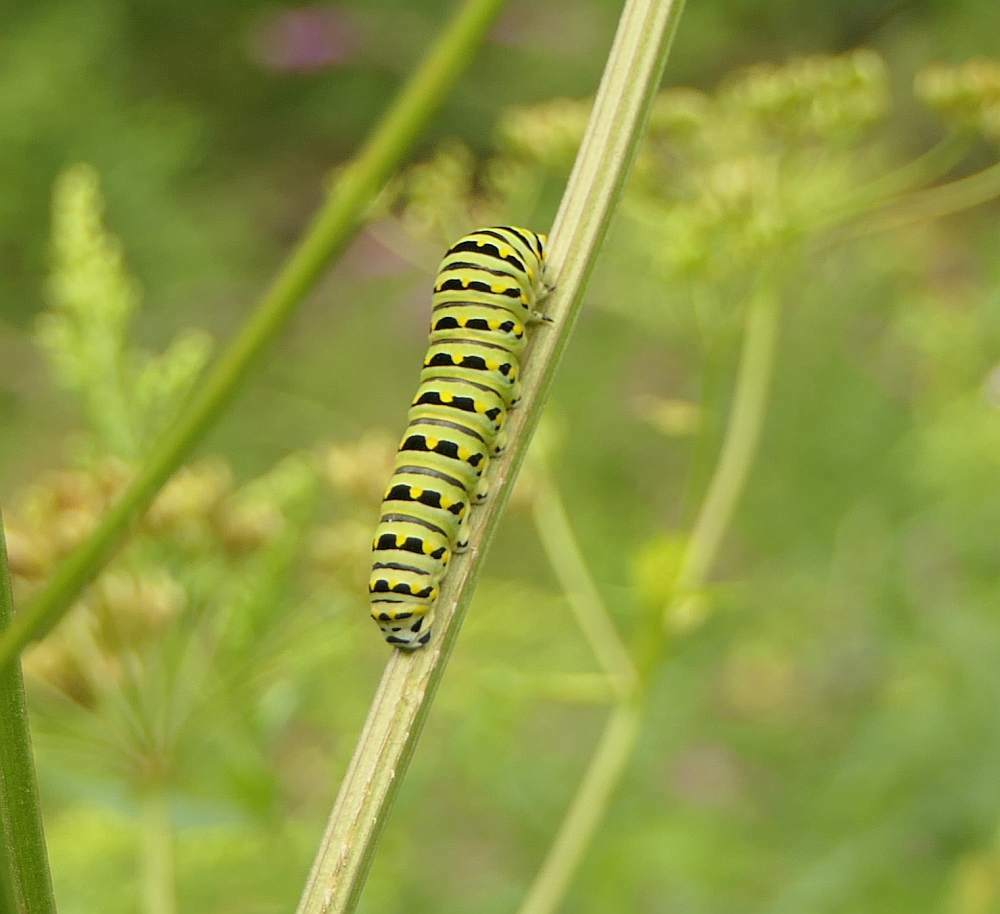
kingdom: Animalia
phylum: Arthropoda
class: Insecta
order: Lepidoptera
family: Papilionidae
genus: Papilio
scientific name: Papilio polyxenes
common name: Black swallowtail
